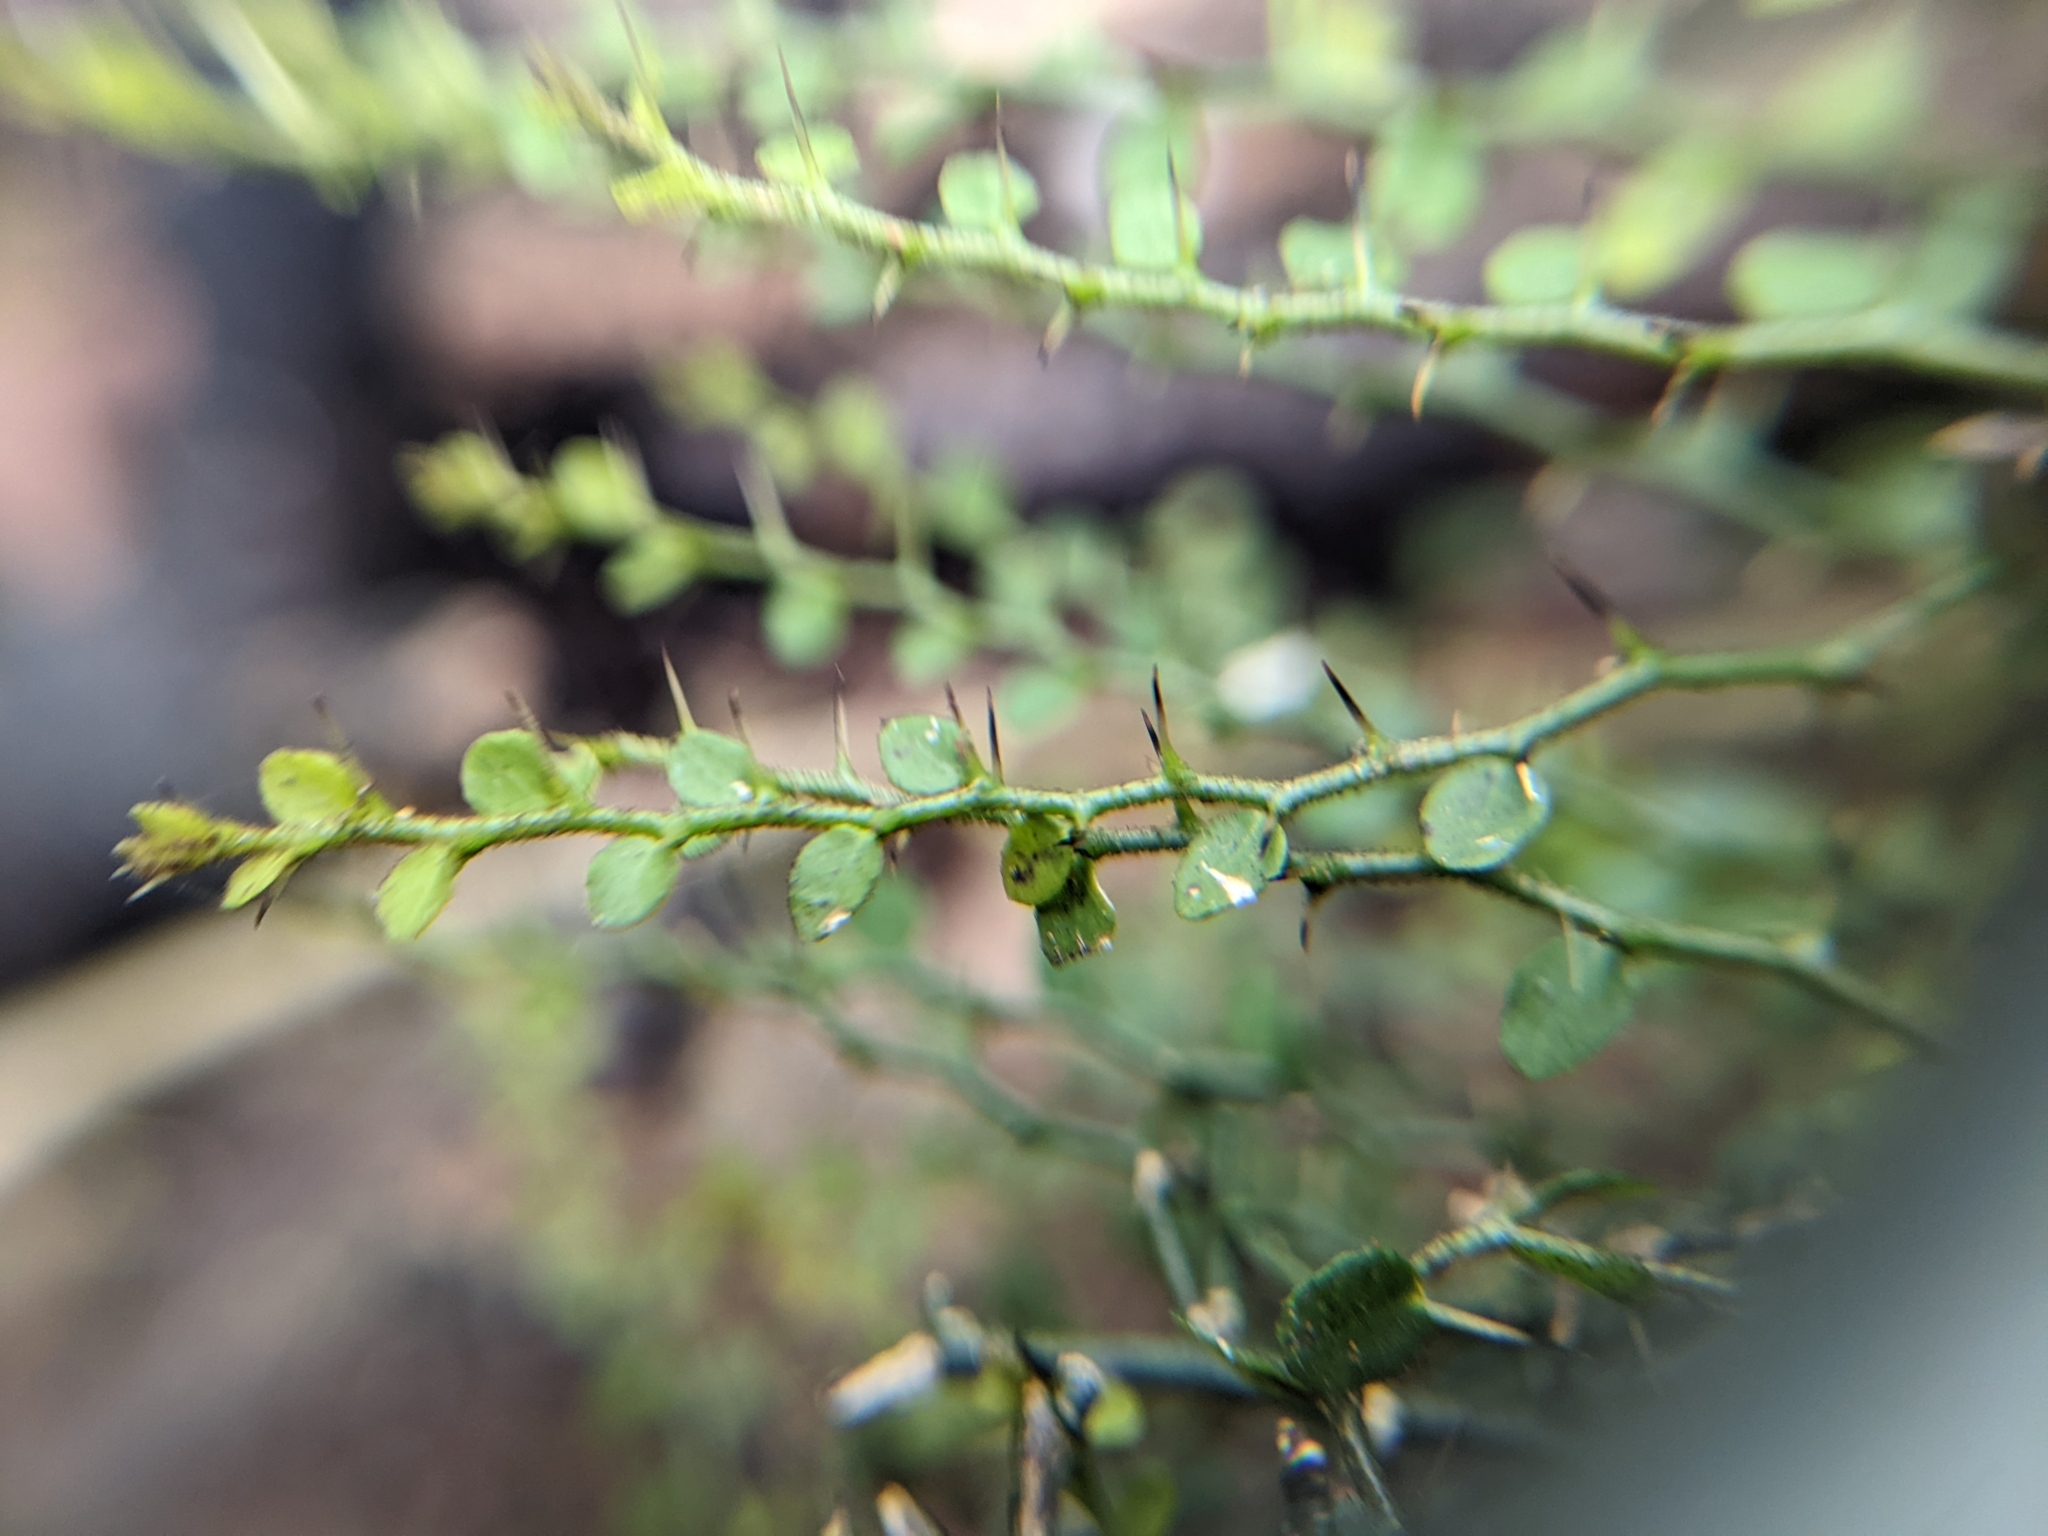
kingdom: Plantae
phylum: Tracheophyta
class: Magnoliopsida
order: Brassicales
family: Capparaceae
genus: Capparis
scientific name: Capparis sarmentosa
